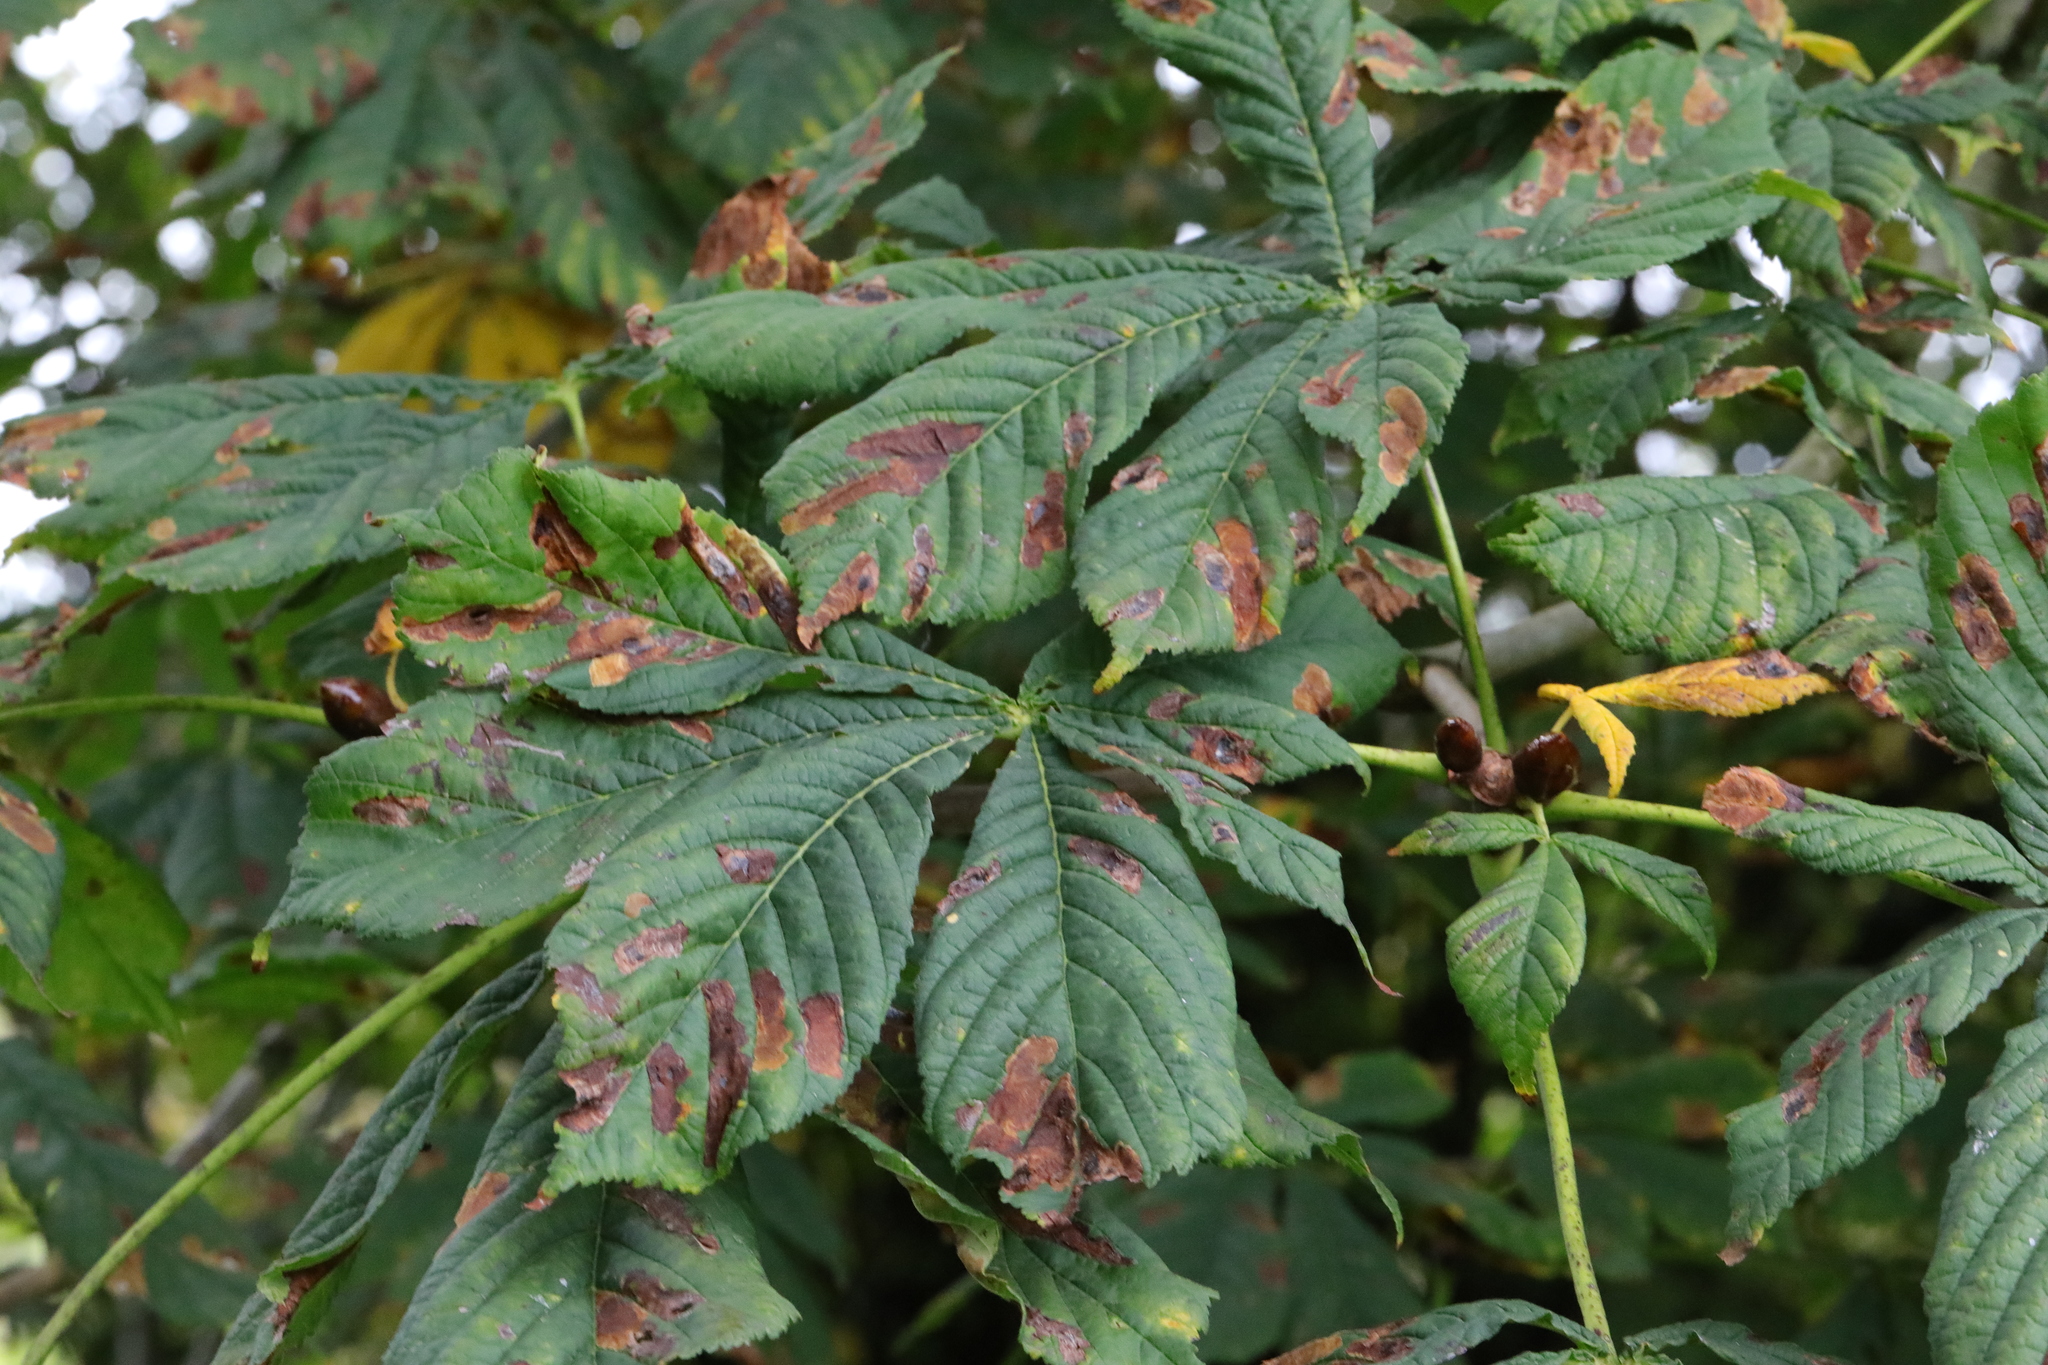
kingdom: Plantae
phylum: Tracheophyta
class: Magnoliopsida
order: Sapindales
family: Sapindaceae
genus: Aesculus
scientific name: Aesculus hippocastanum
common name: Horse-chestnut
